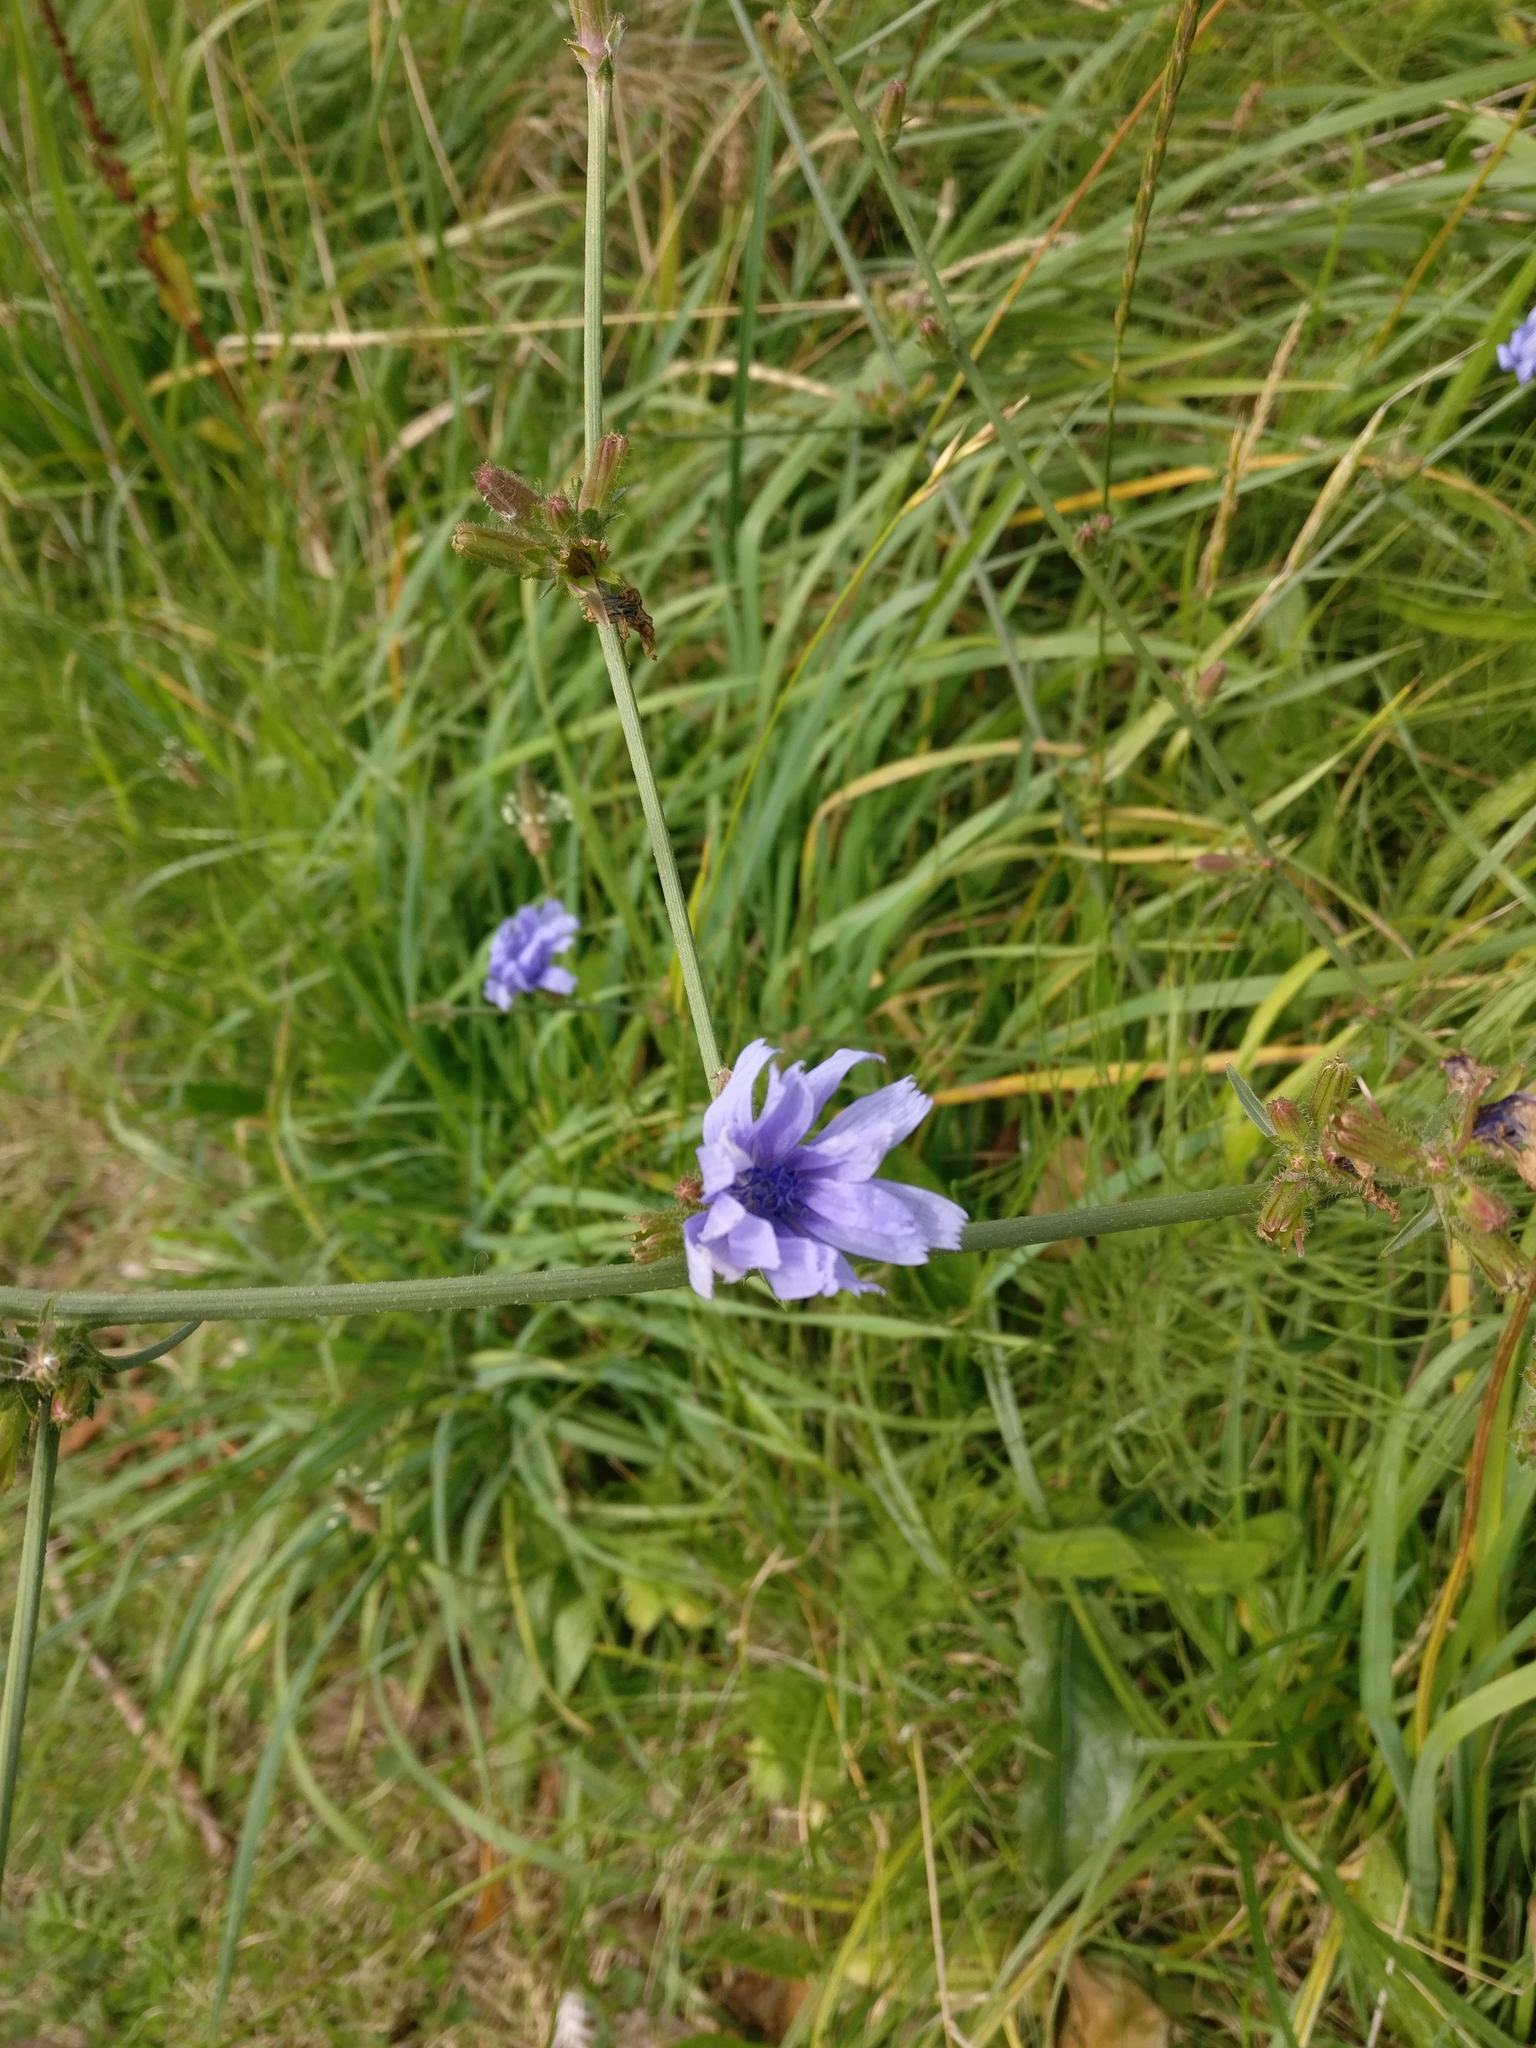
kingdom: Plantae
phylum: Tracheophyta
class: Magnoliopsida
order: Asterales
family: Asteraceae
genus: Cichorium
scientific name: Cichorium intybus
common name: Chicory
